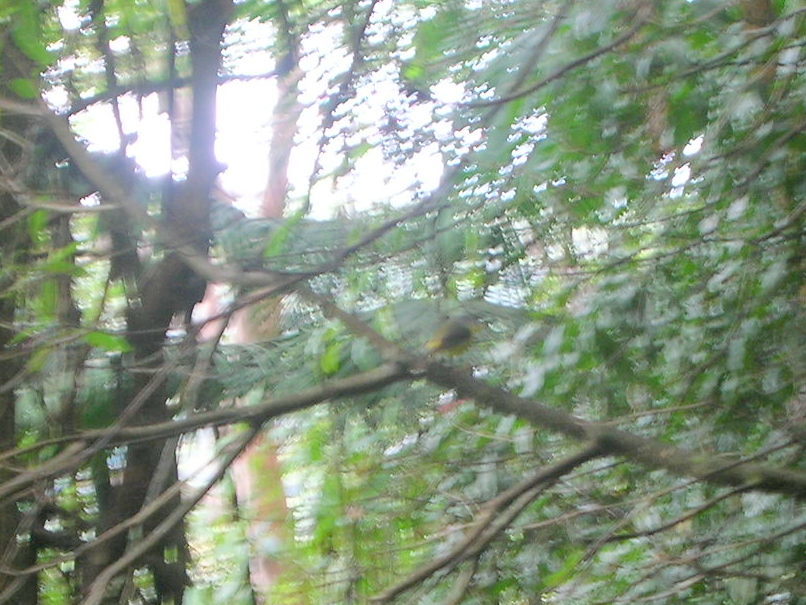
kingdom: Animalia
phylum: Chordata
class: Aves
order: Passeriformes
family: Petroicidae
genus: Eopsaltria
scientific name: Eopsaltria australis
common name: Eastern yellow robin
